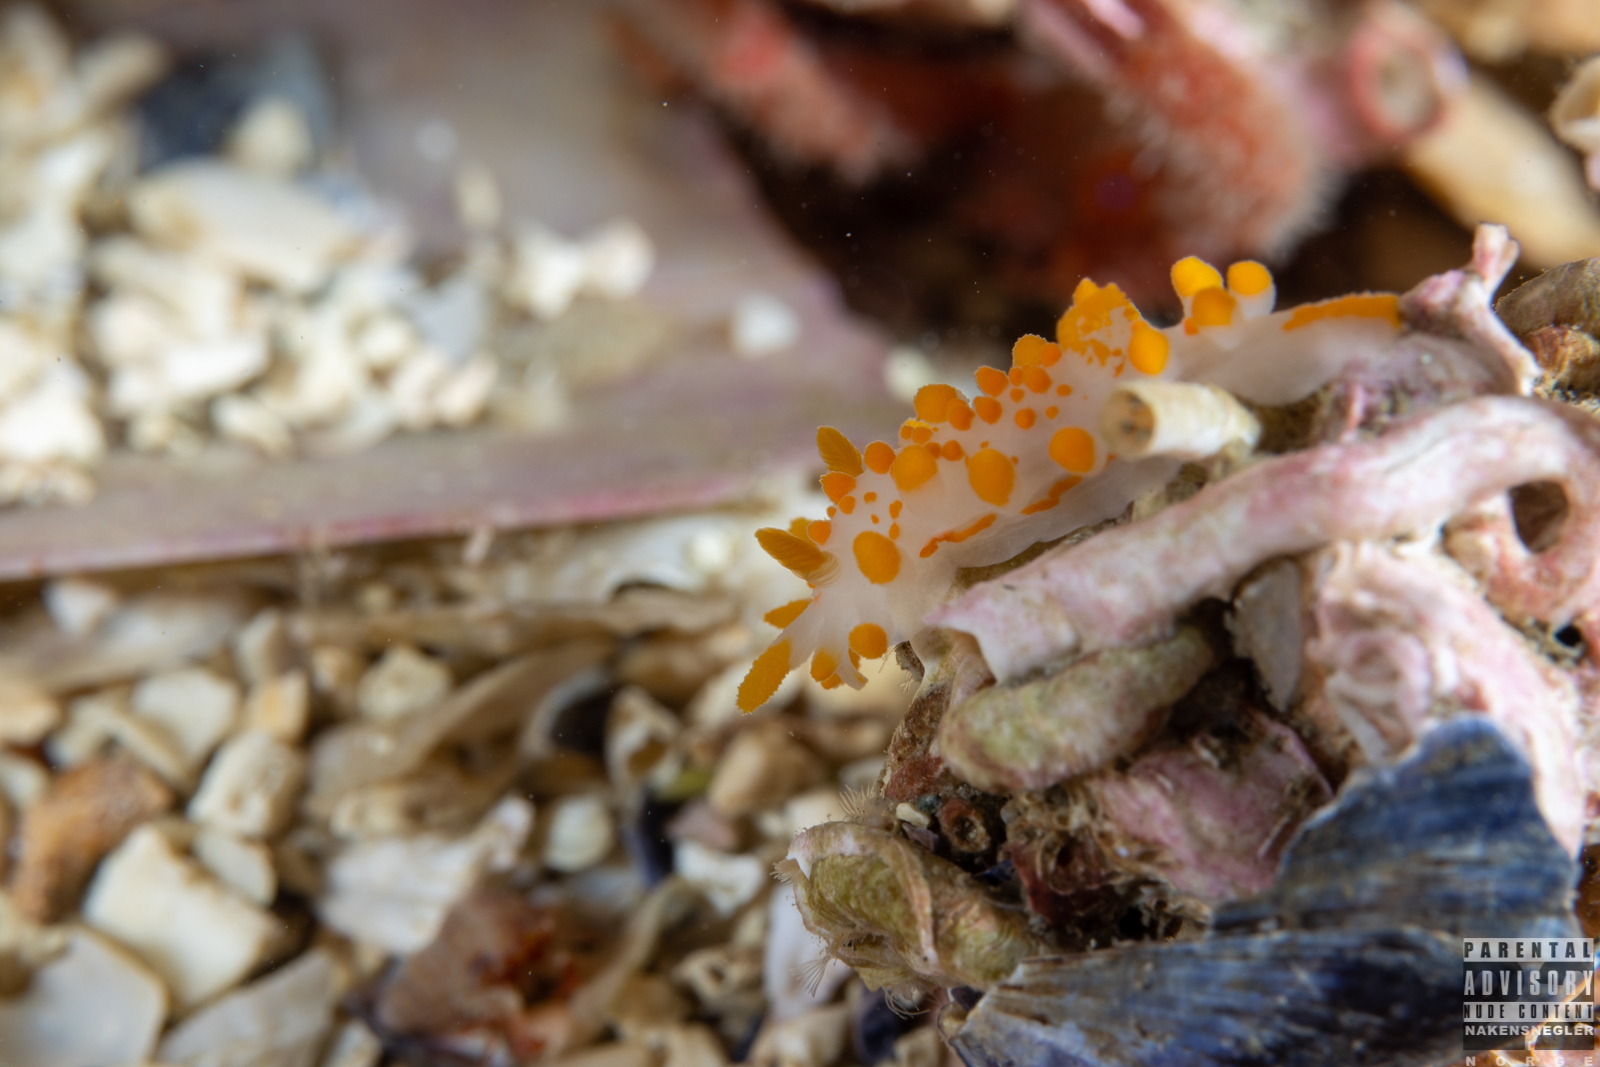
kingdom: Animalia
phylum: Mollusca
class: Gastropoda
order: Nudibranchia
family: Polyceridae
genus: Limacia
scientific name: Limacia clavigera
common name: Orange-clubbed sea slug
